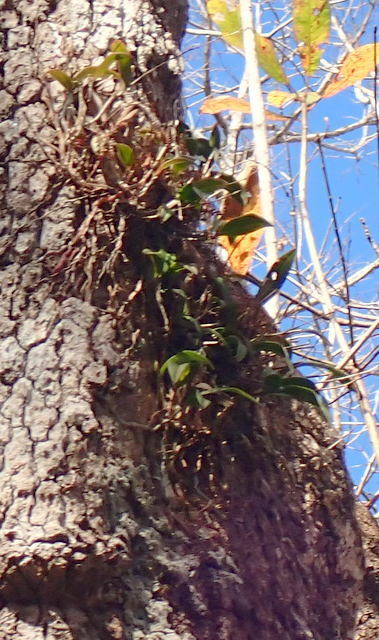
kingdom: Plantae
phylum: Tracheophyta
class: Liliopsida
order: Asparagales
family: Orchidaceae
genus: Epidendrum
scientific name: Epidendrum conopseum
